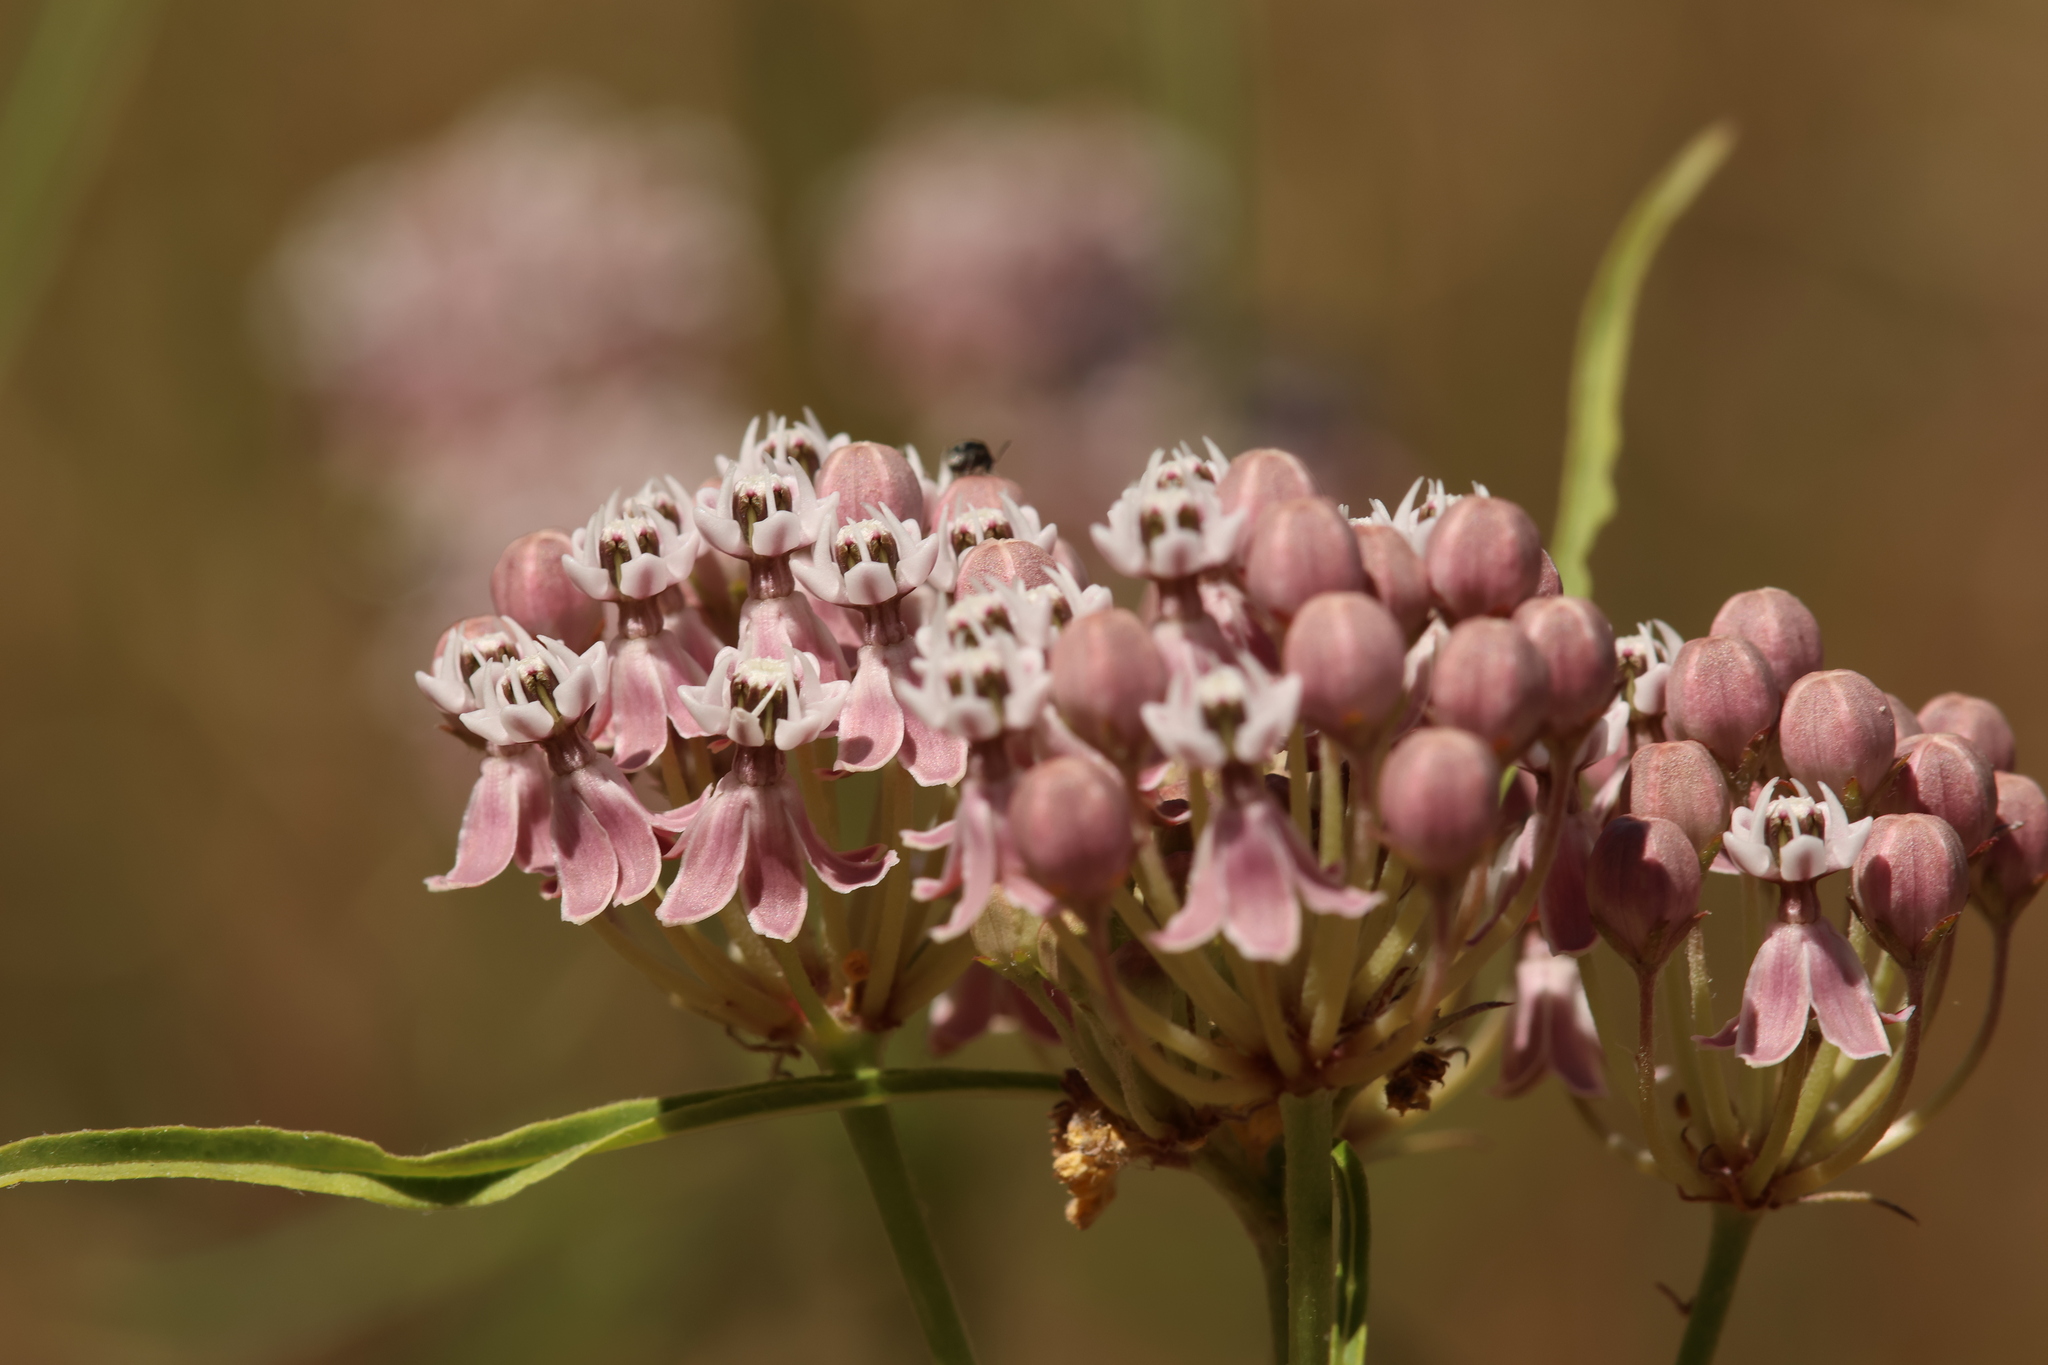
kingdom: Plantae
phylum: Tracheophyta
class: Magnoliopsida
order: Gentianales
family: Apocynaceae
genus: Asclepias
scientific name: Asclepias fascicularis
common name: Mexican milkweed
